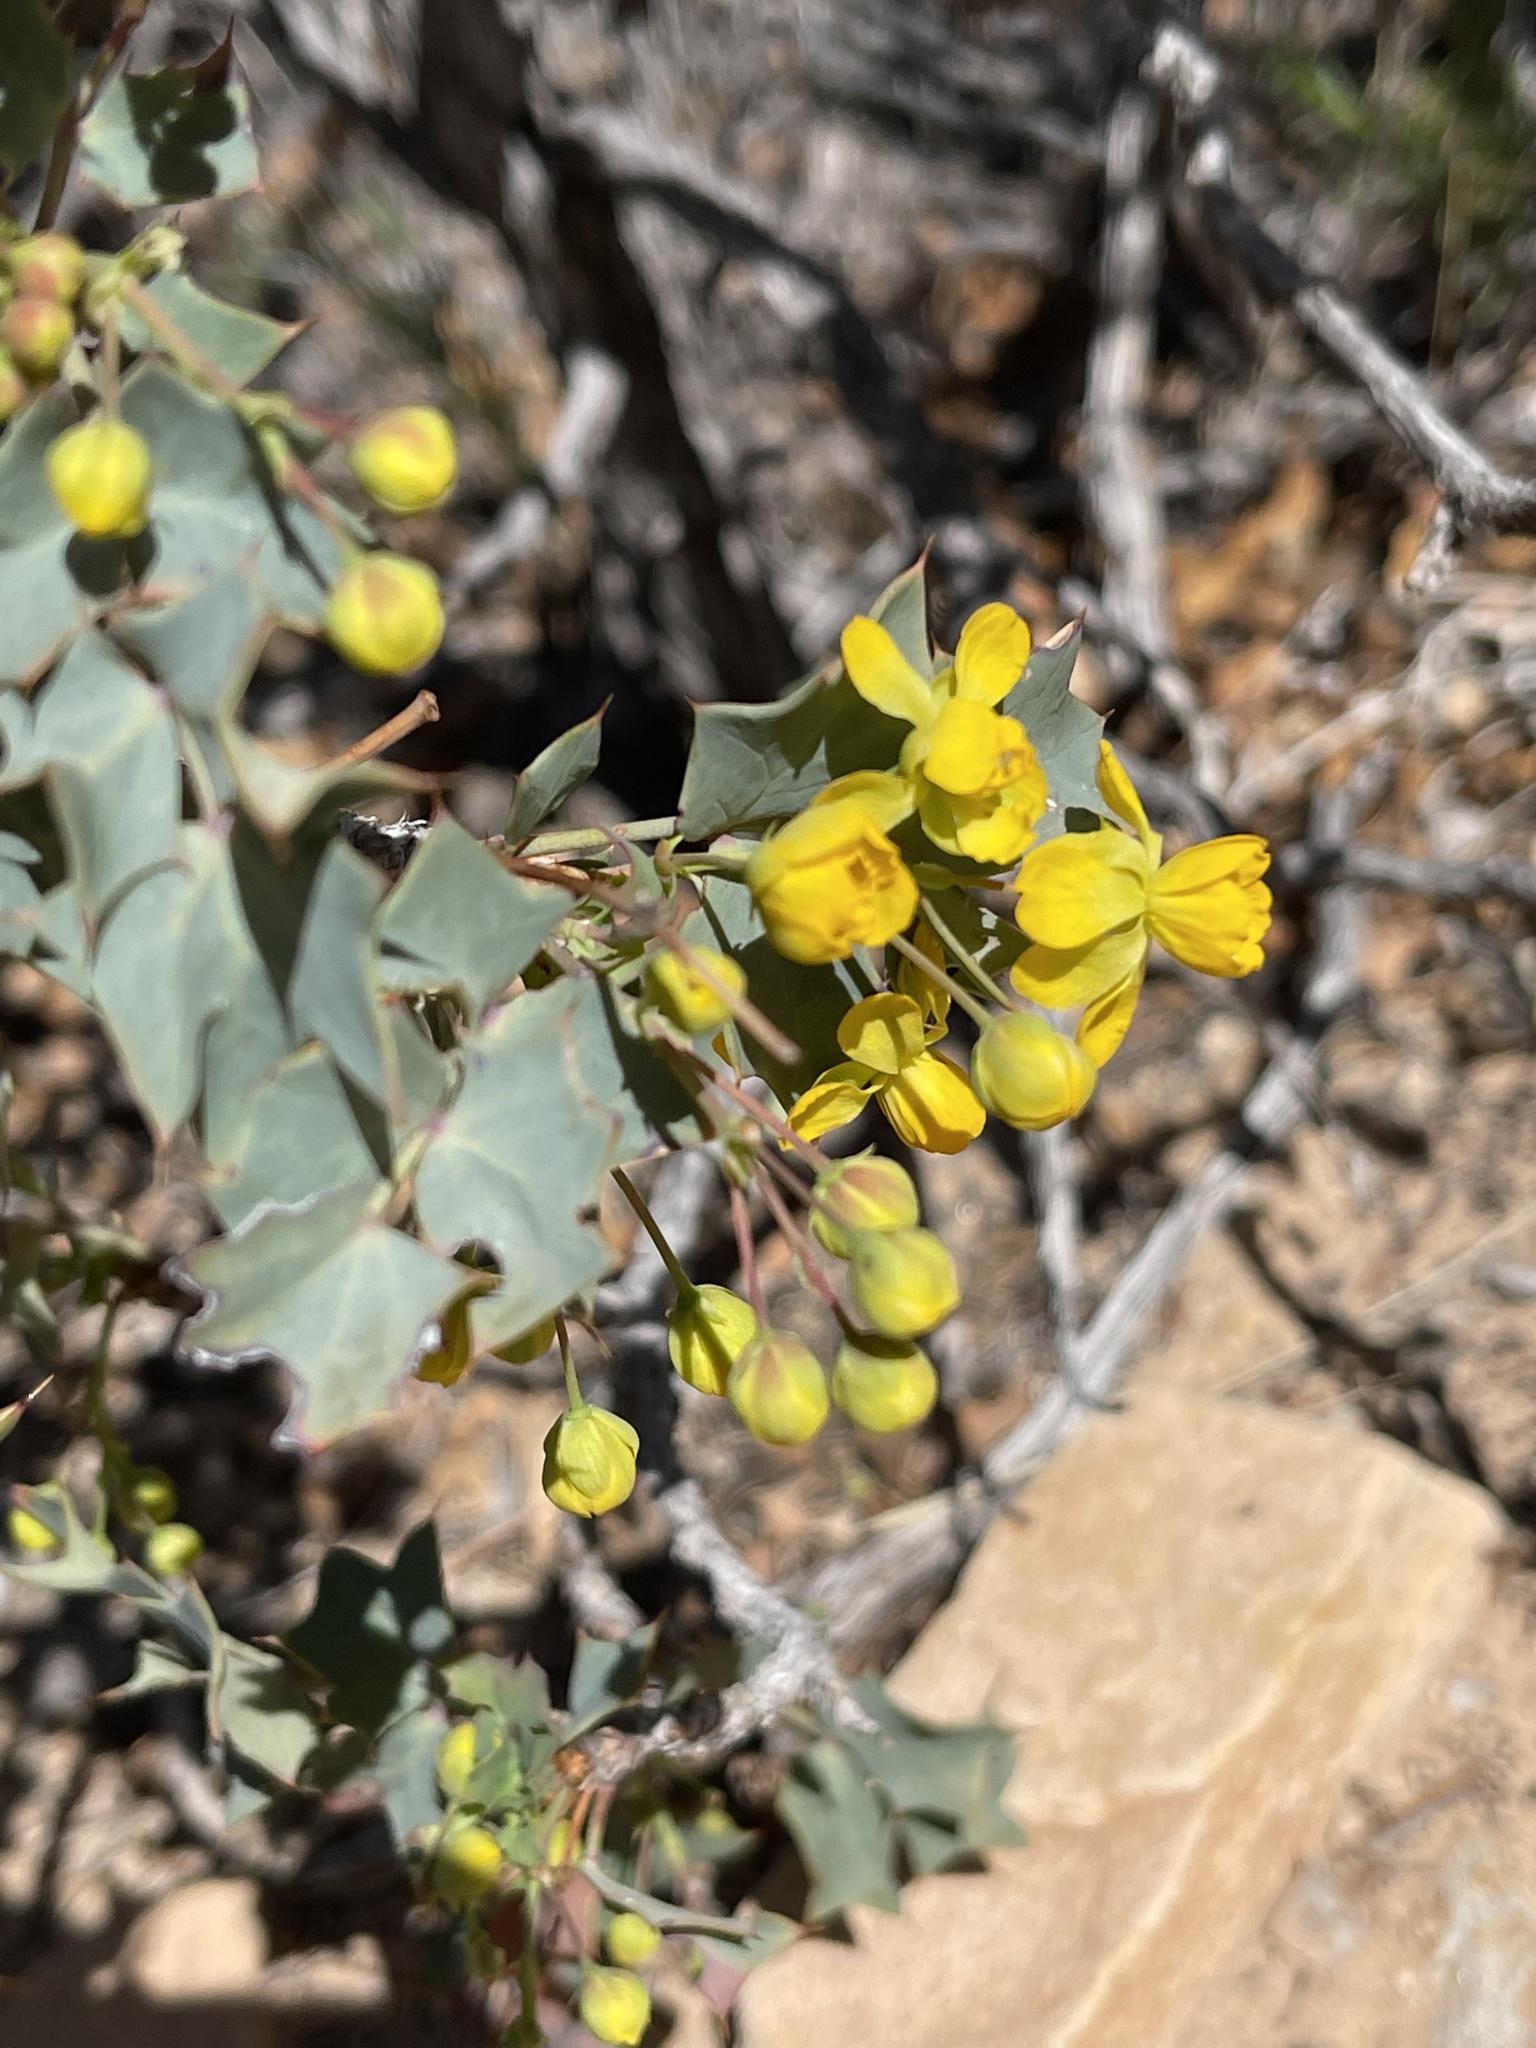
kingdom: Plantae
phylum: Tracheophyta
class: Magnoliopsida
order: Ranunculales
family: Berberidaceae
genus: Alloberberis
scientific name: Alloberberis fremontii
